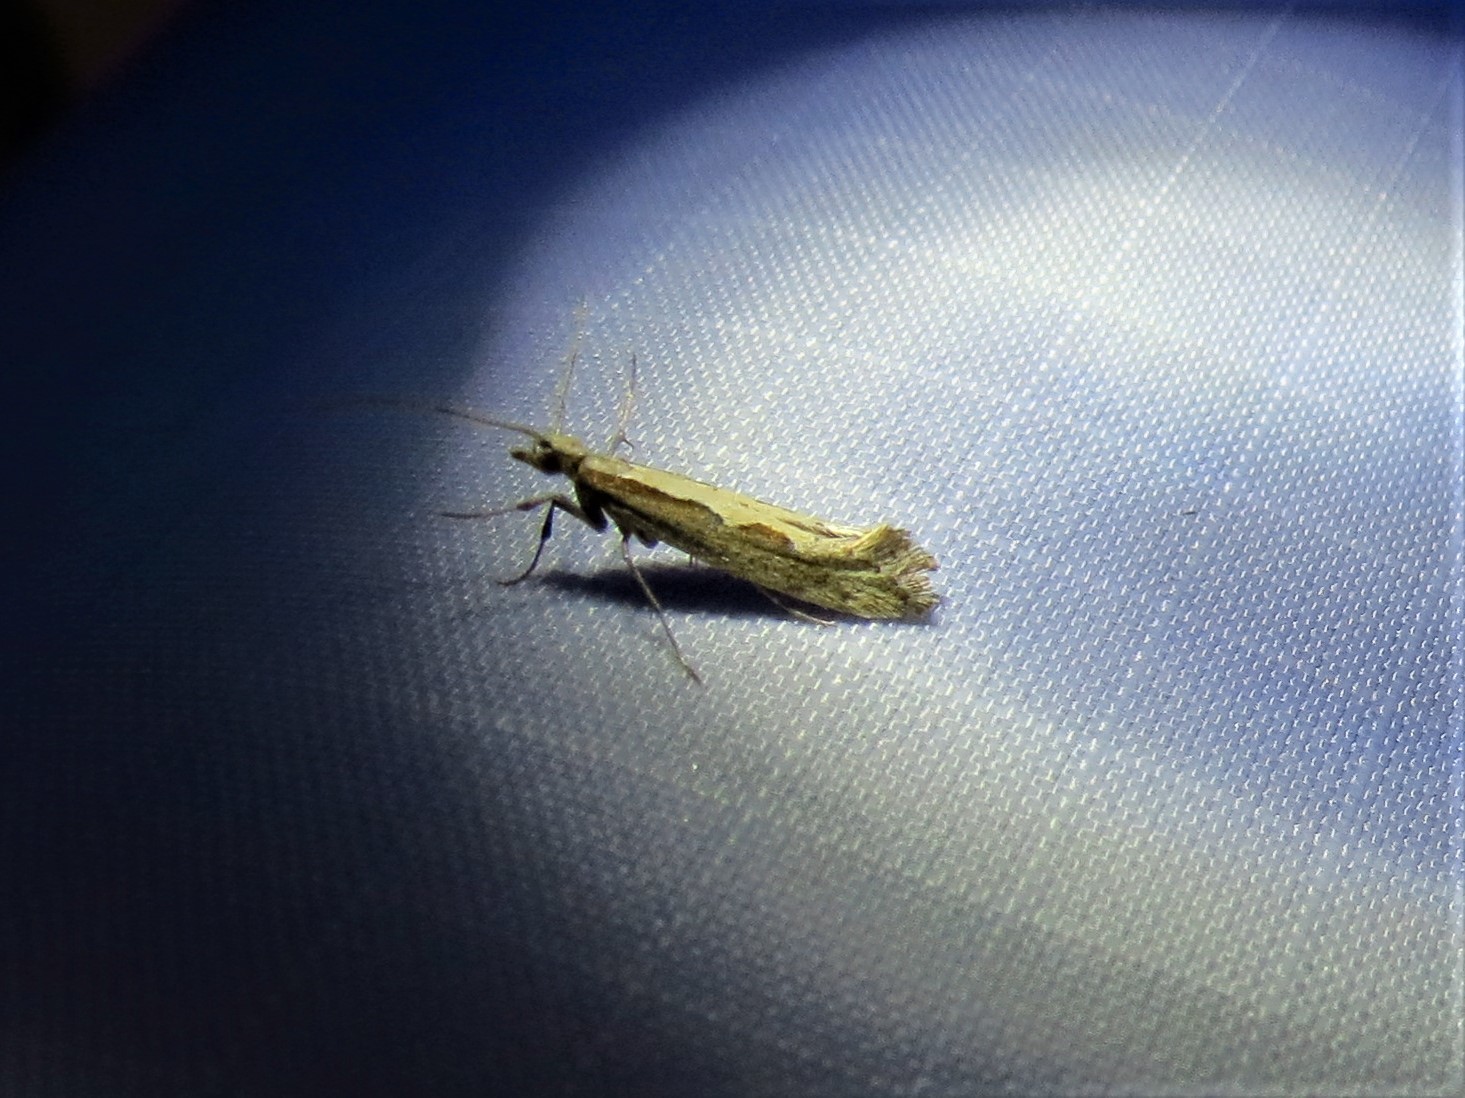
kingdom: Animalia
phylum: Arthropoda
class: Insecta
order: Lepidoptera
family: Plutellidae
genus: Plutella
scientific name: Plutella xylostella
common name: Diamond-back moth
